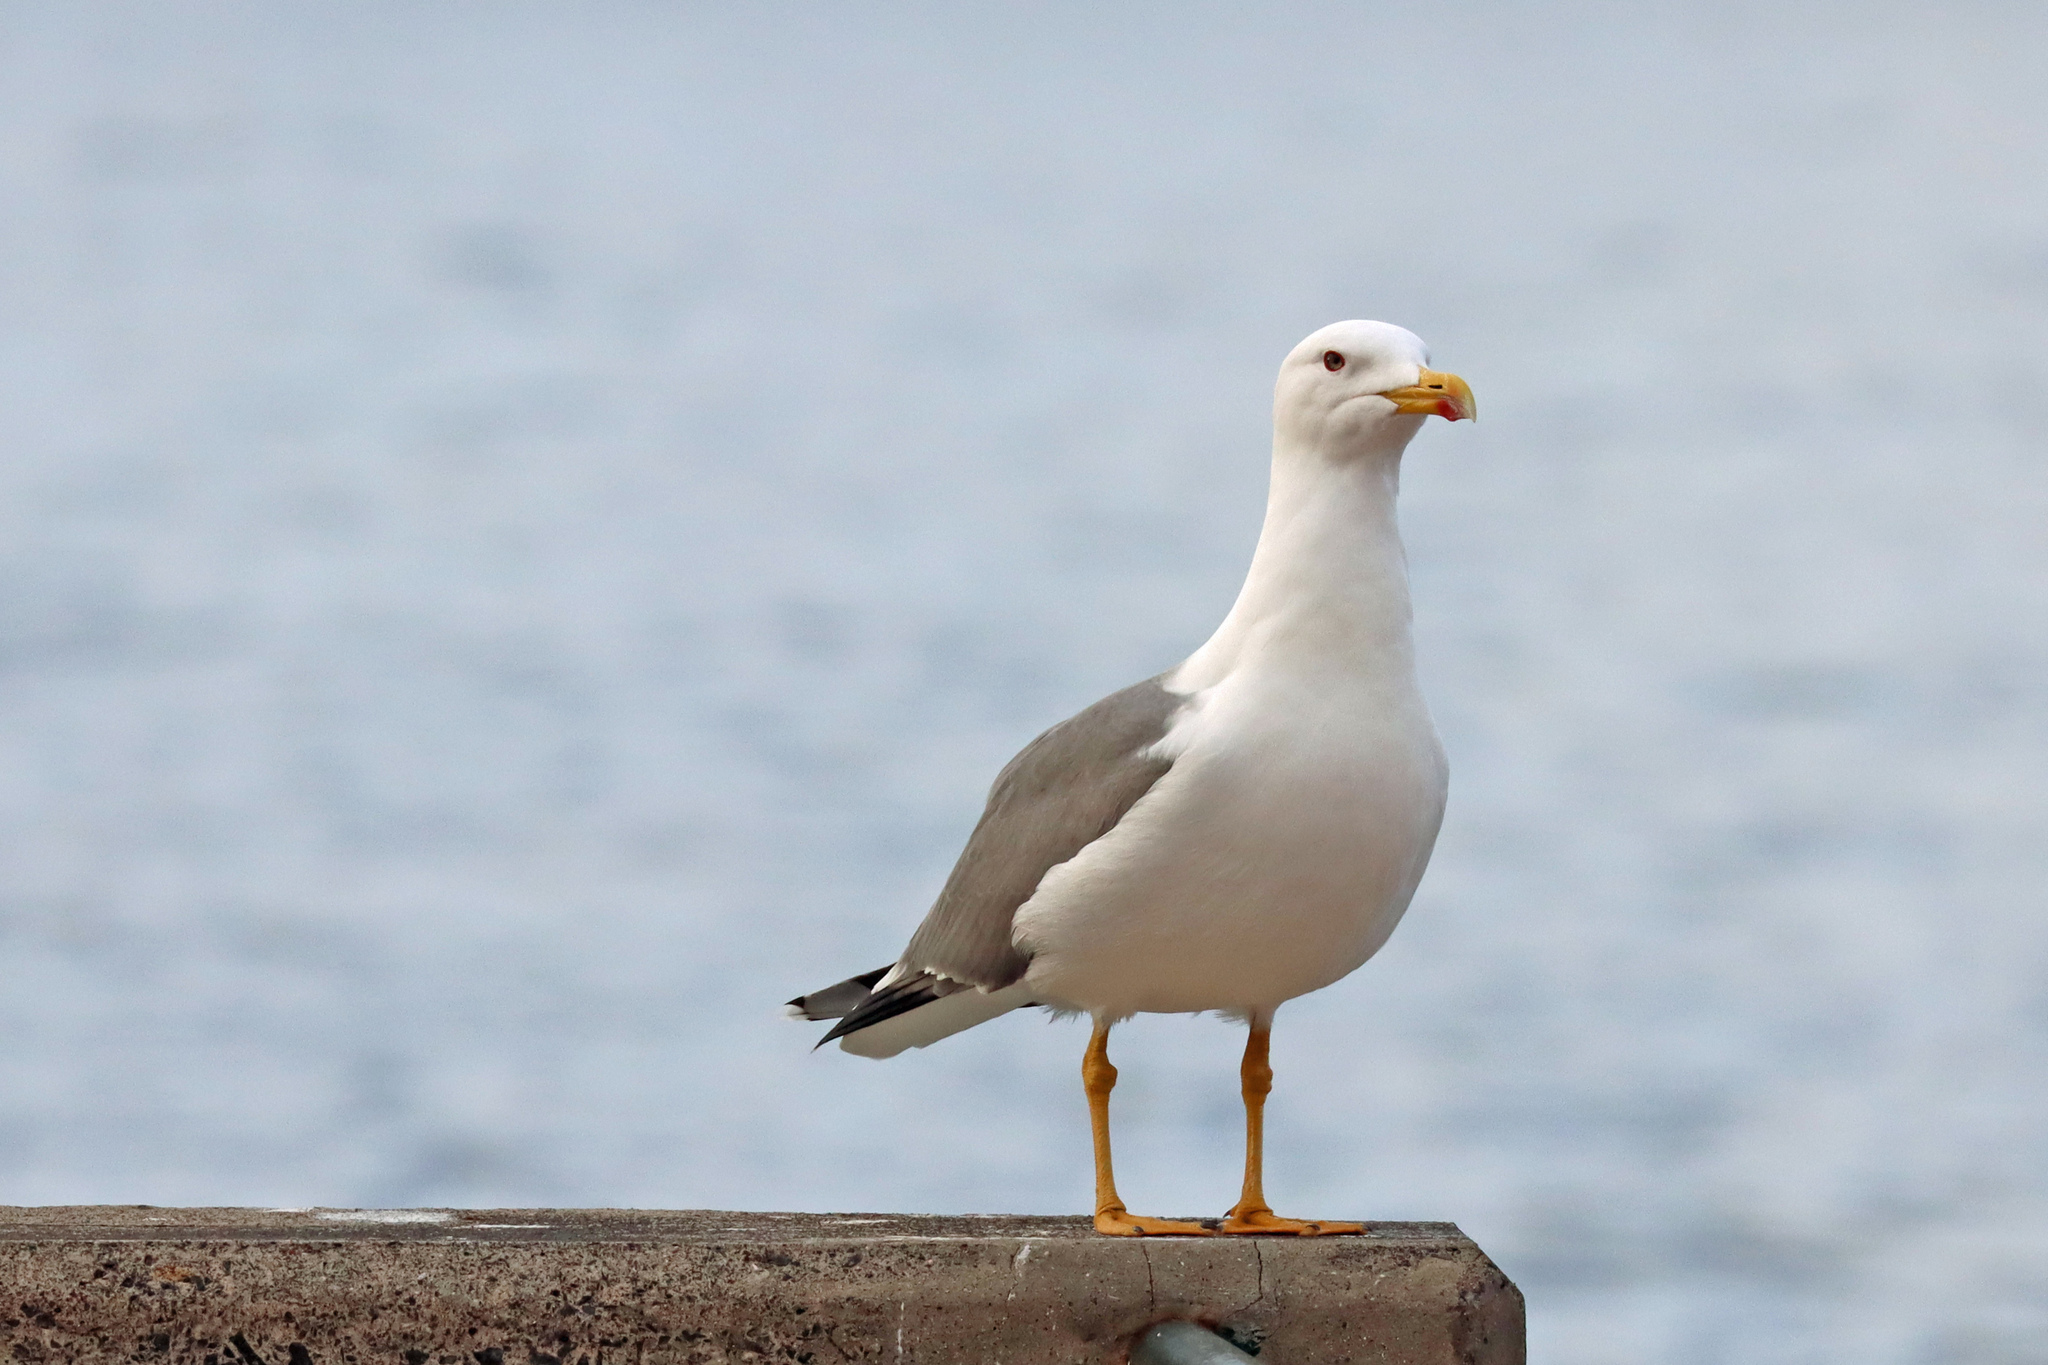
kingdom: Animalia
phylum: Chordata
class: Aves
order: Charadriiformes
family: Laridae
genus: Larus
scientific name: Larus michahellis
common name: Yellow-legged gull
